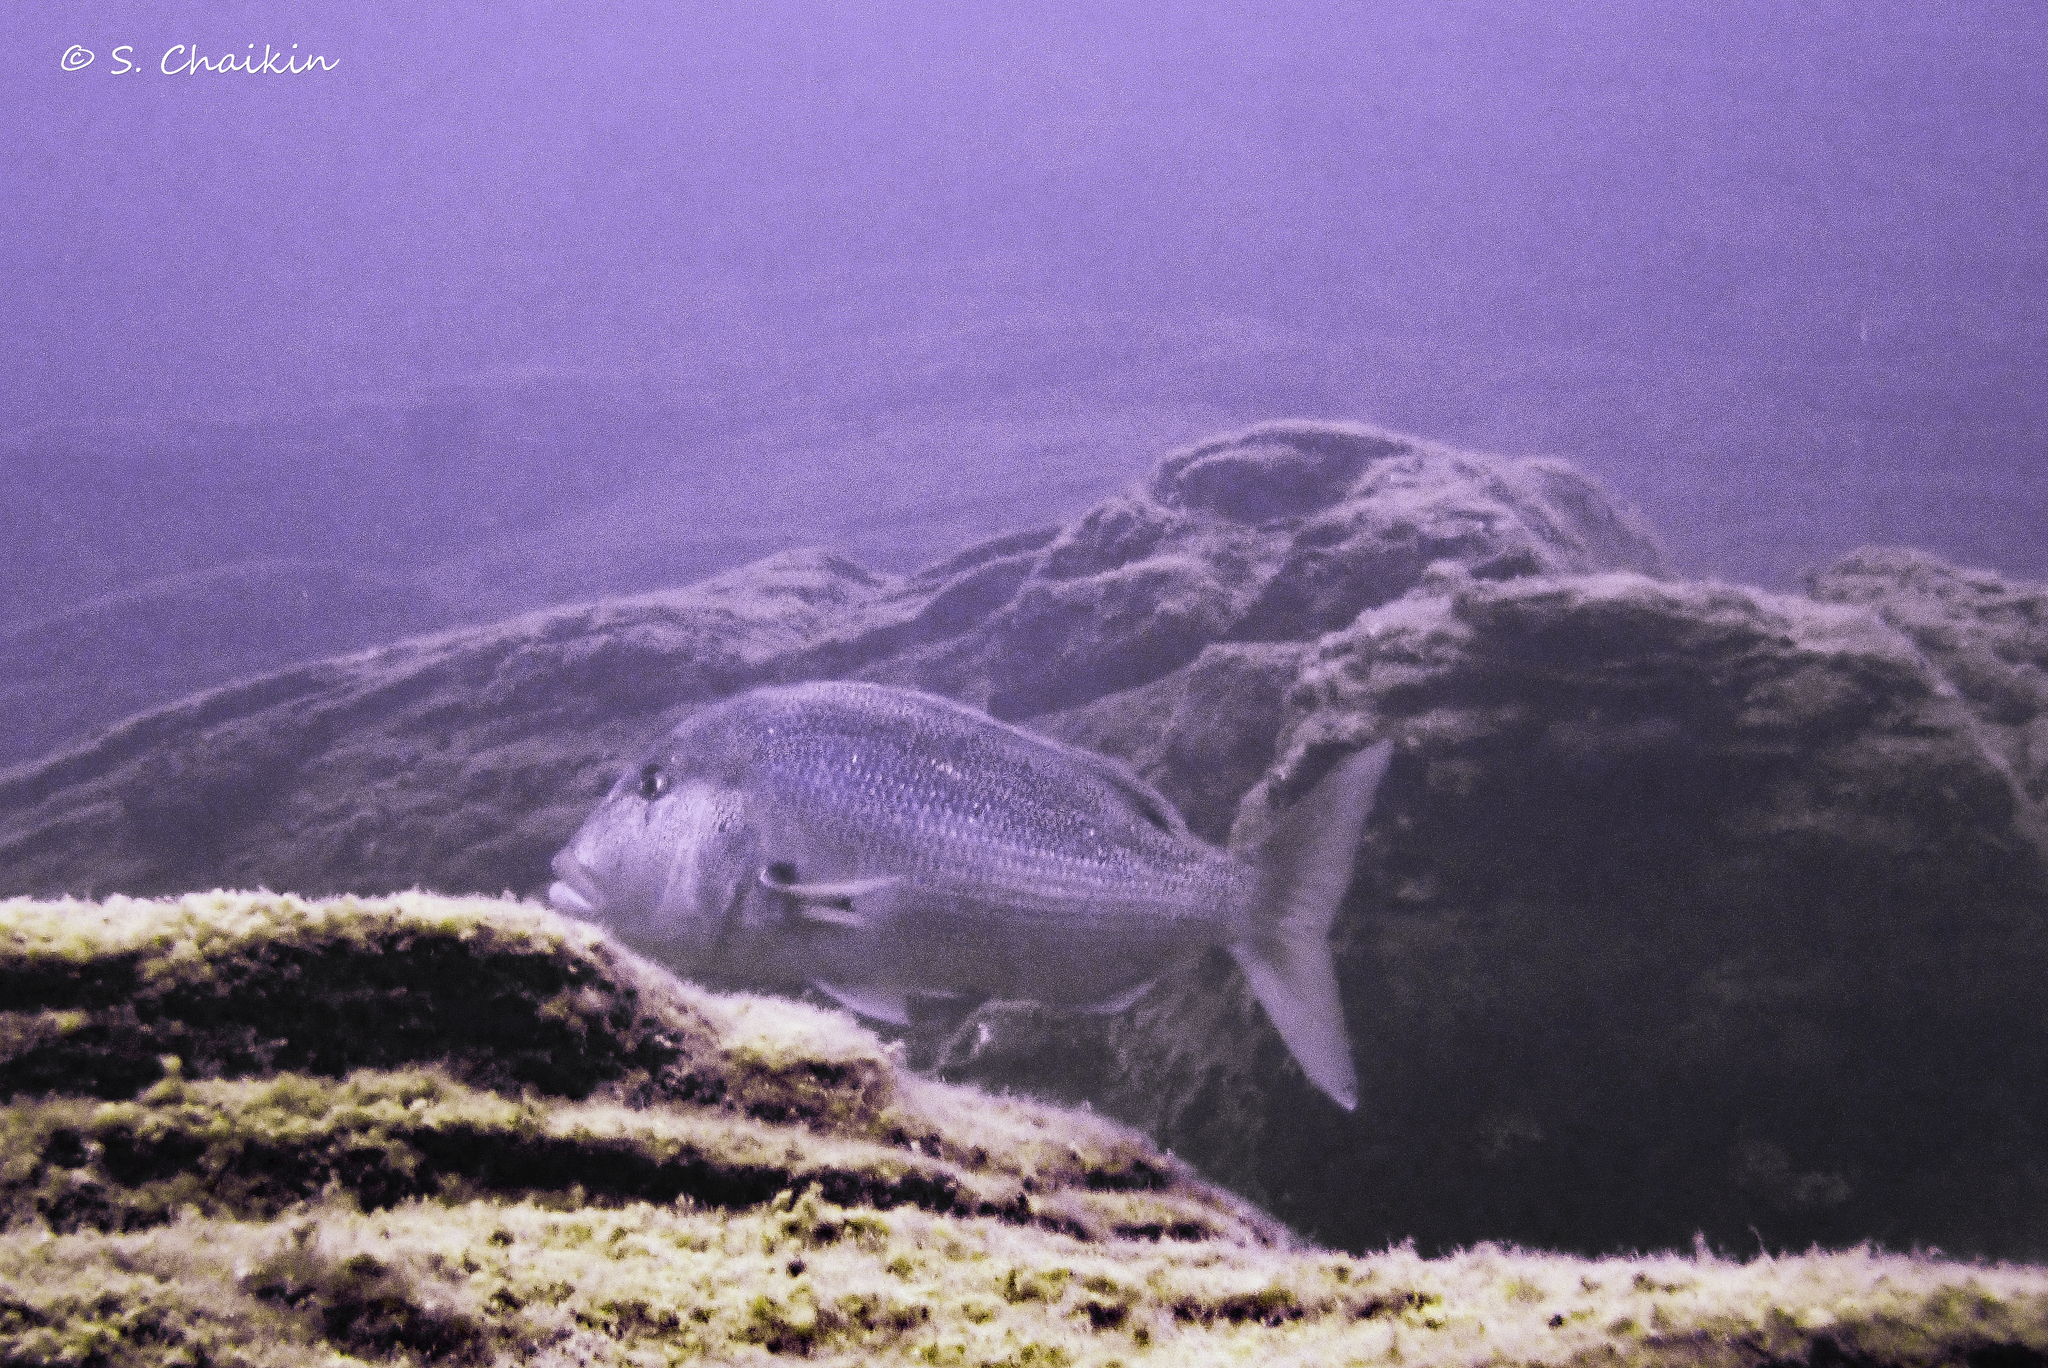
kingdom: Animalia
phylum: Chordata
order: Perciformes
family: Sparidae
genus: Dentex
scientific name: Dentex dentex
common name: Dentex
